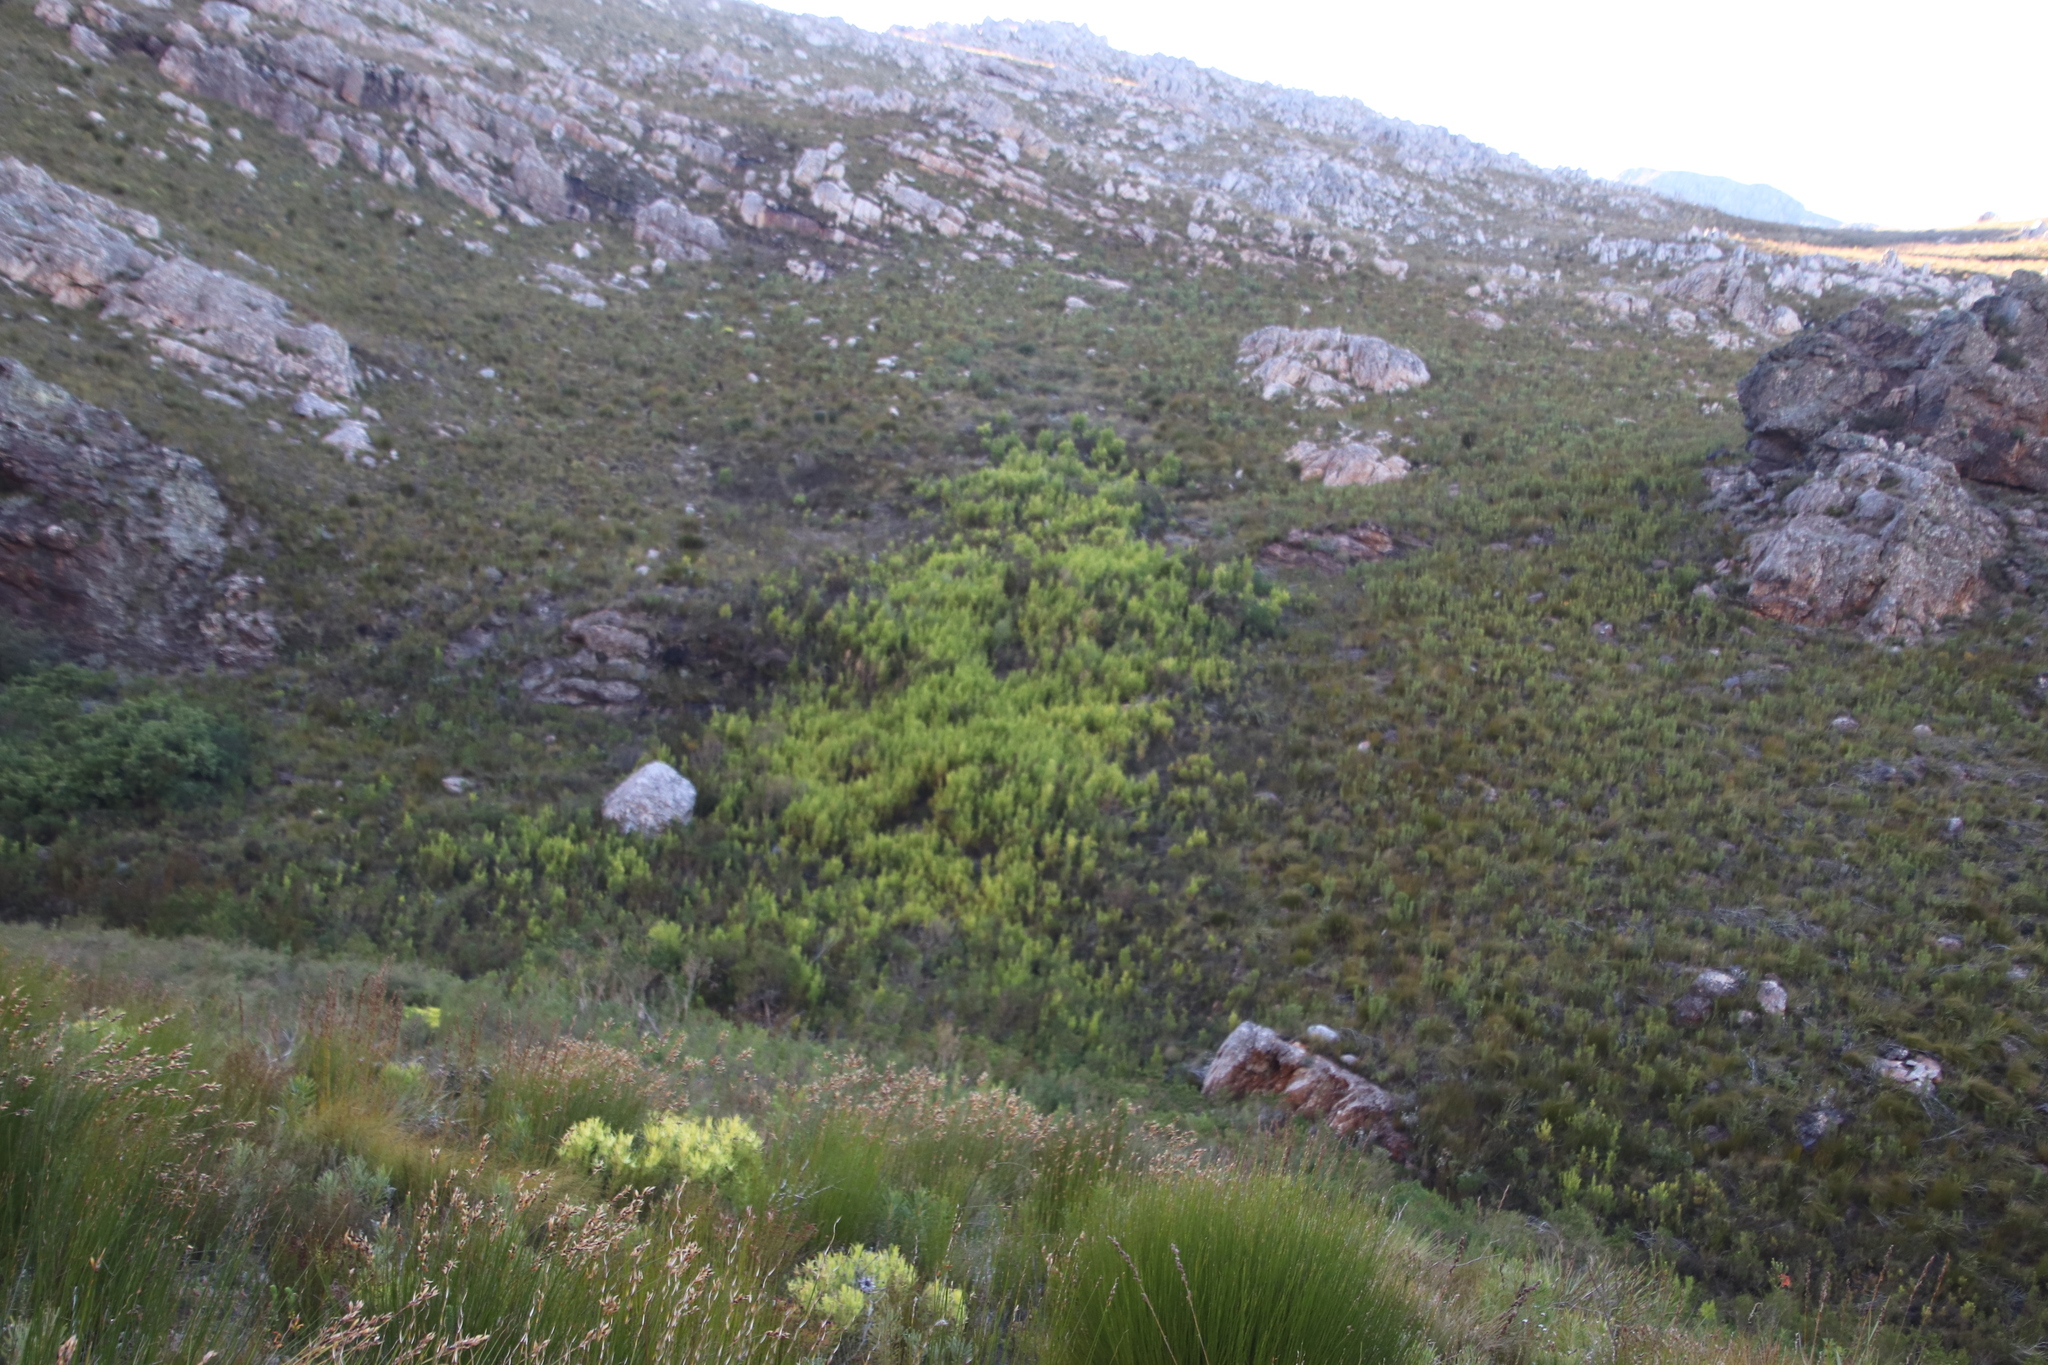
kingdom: Plantae
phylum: Tracheophyta
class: Magnoliopsida
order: Proteales
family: Proteaceae
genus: Leucadendron
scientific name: Leucadendron salicifolium
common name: Common stream conebush
